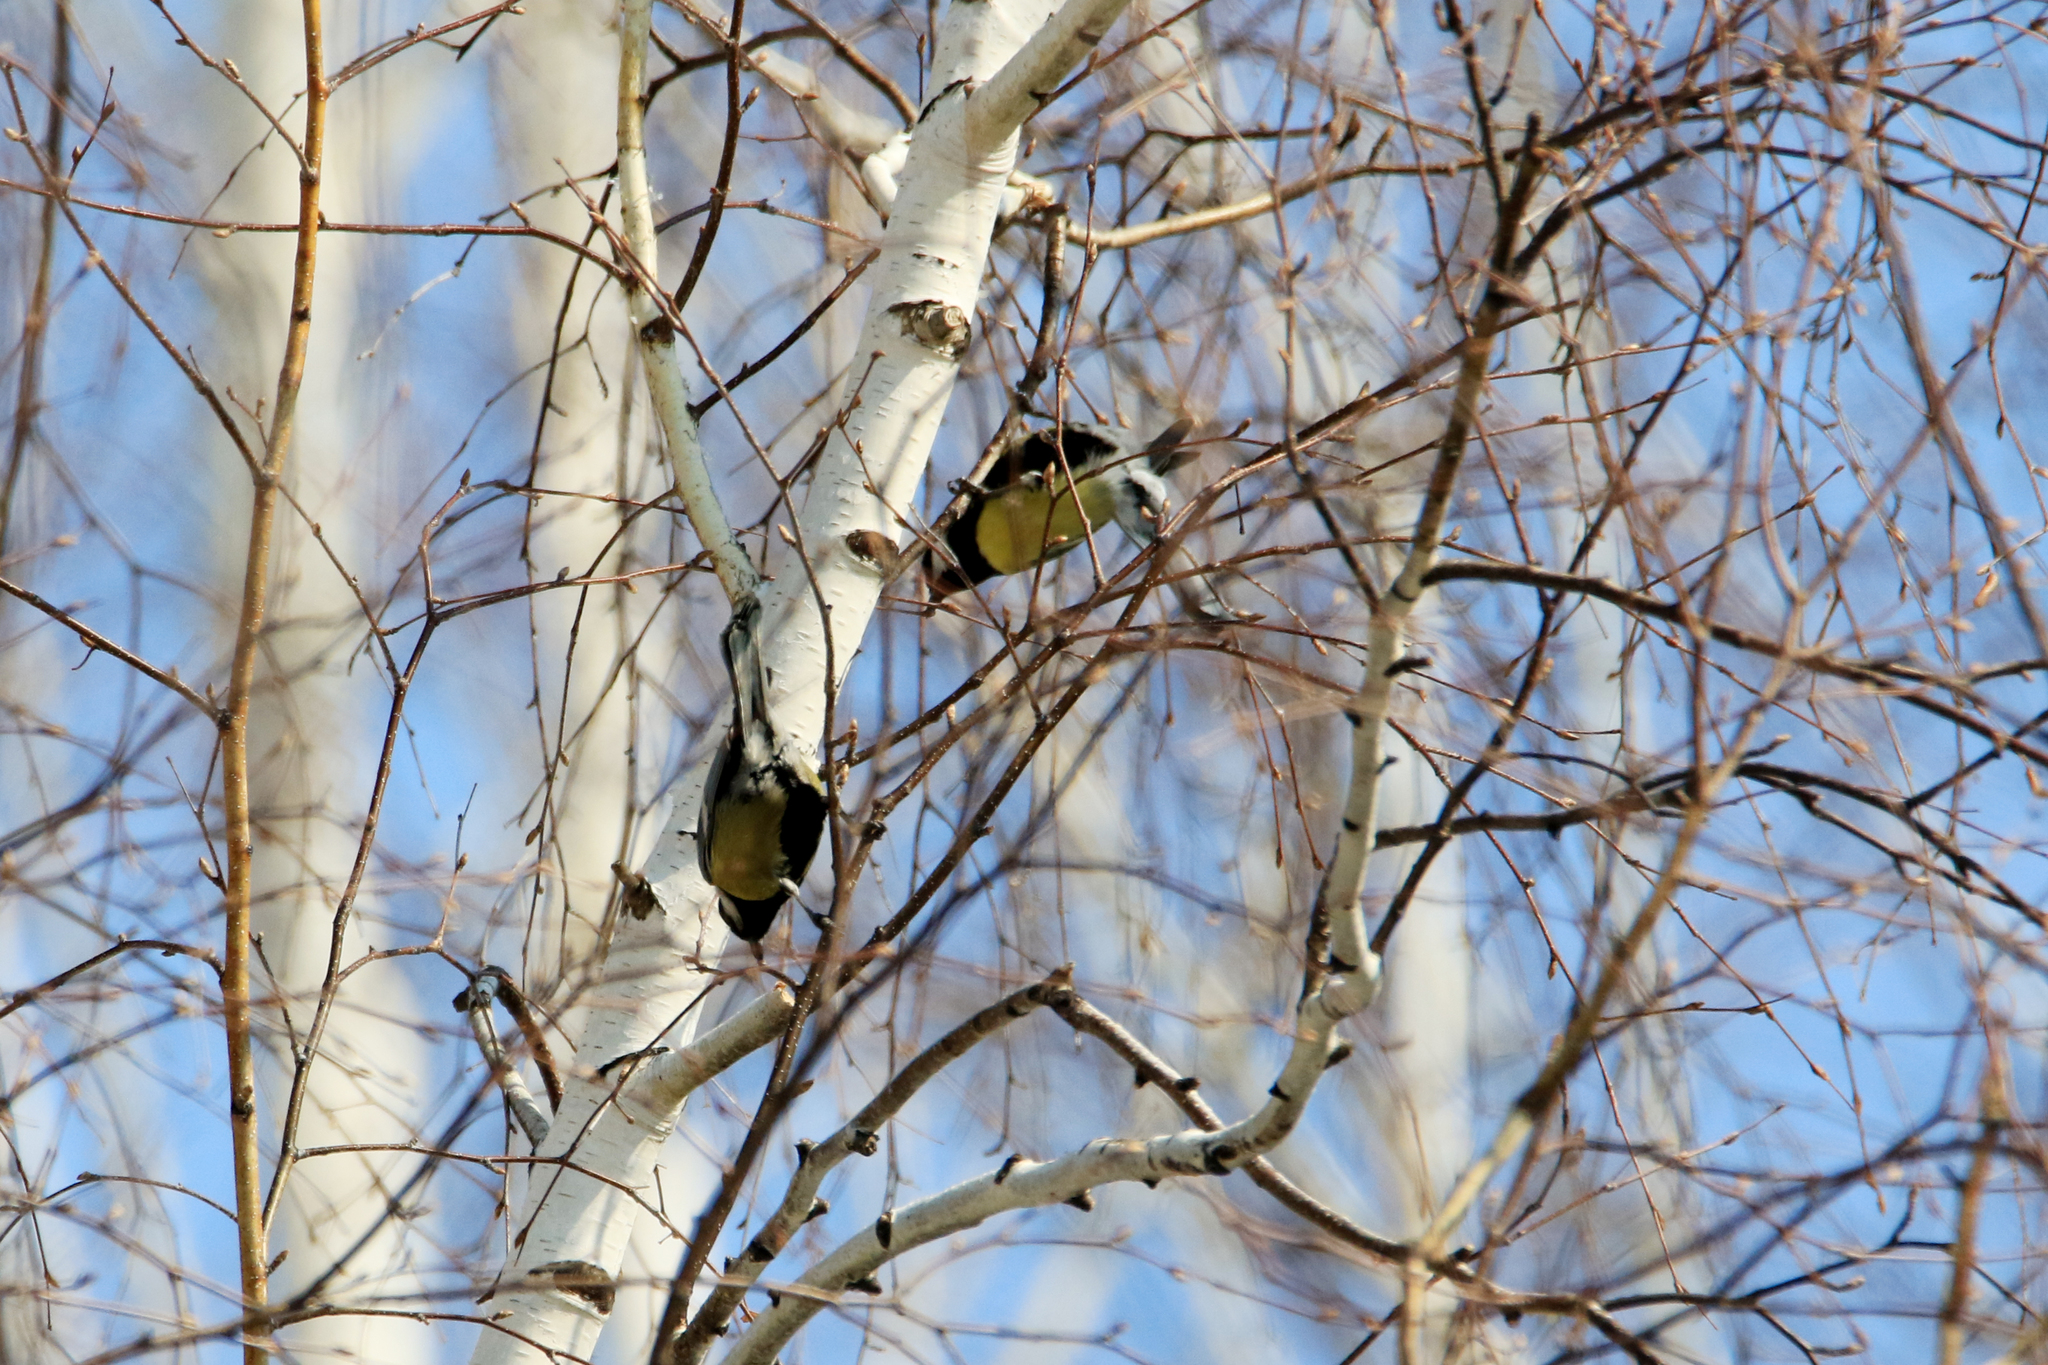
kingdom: Animalia
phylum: Chordata
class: Aves
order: Passeriformes
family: Paridae
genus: Parus
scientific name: Parus major
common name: Great tit
